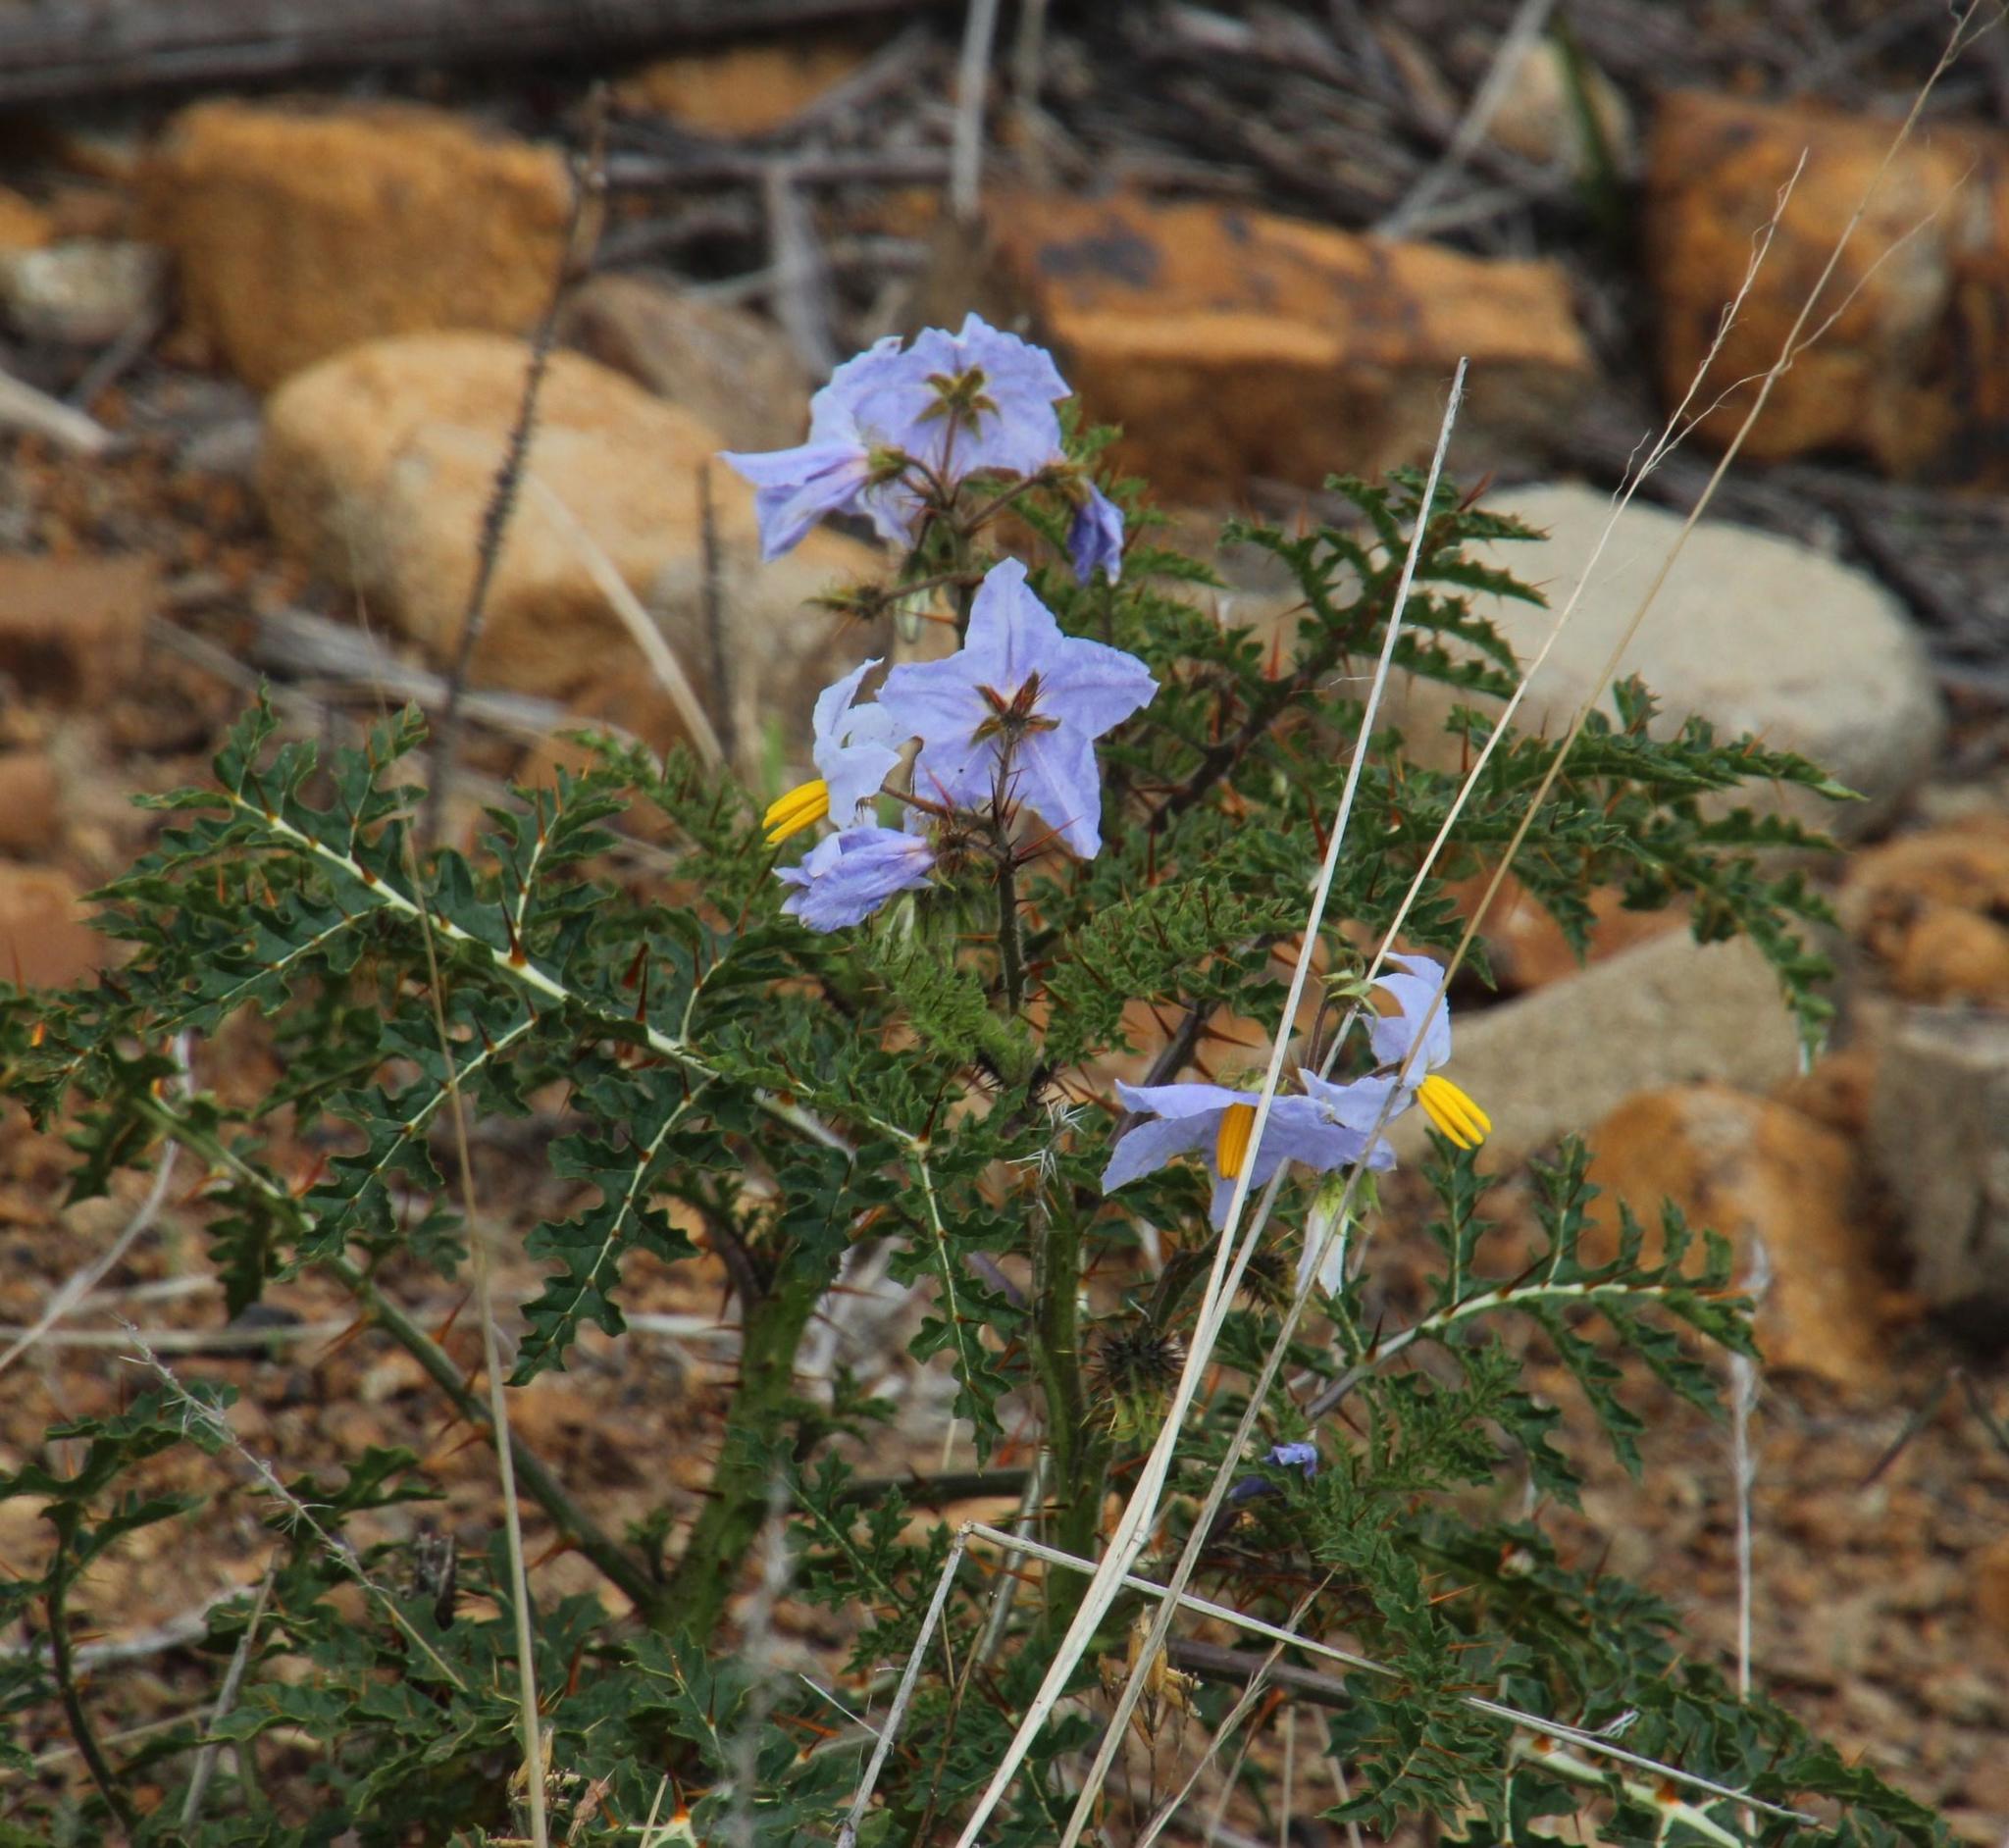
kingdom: Plantae
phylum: Tracheophyta
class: Magnoliopsida
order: Solanales
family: Solanaceae
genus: Solanum
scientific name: Solanum sisymbriifolium
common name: Red buffalo-bur
